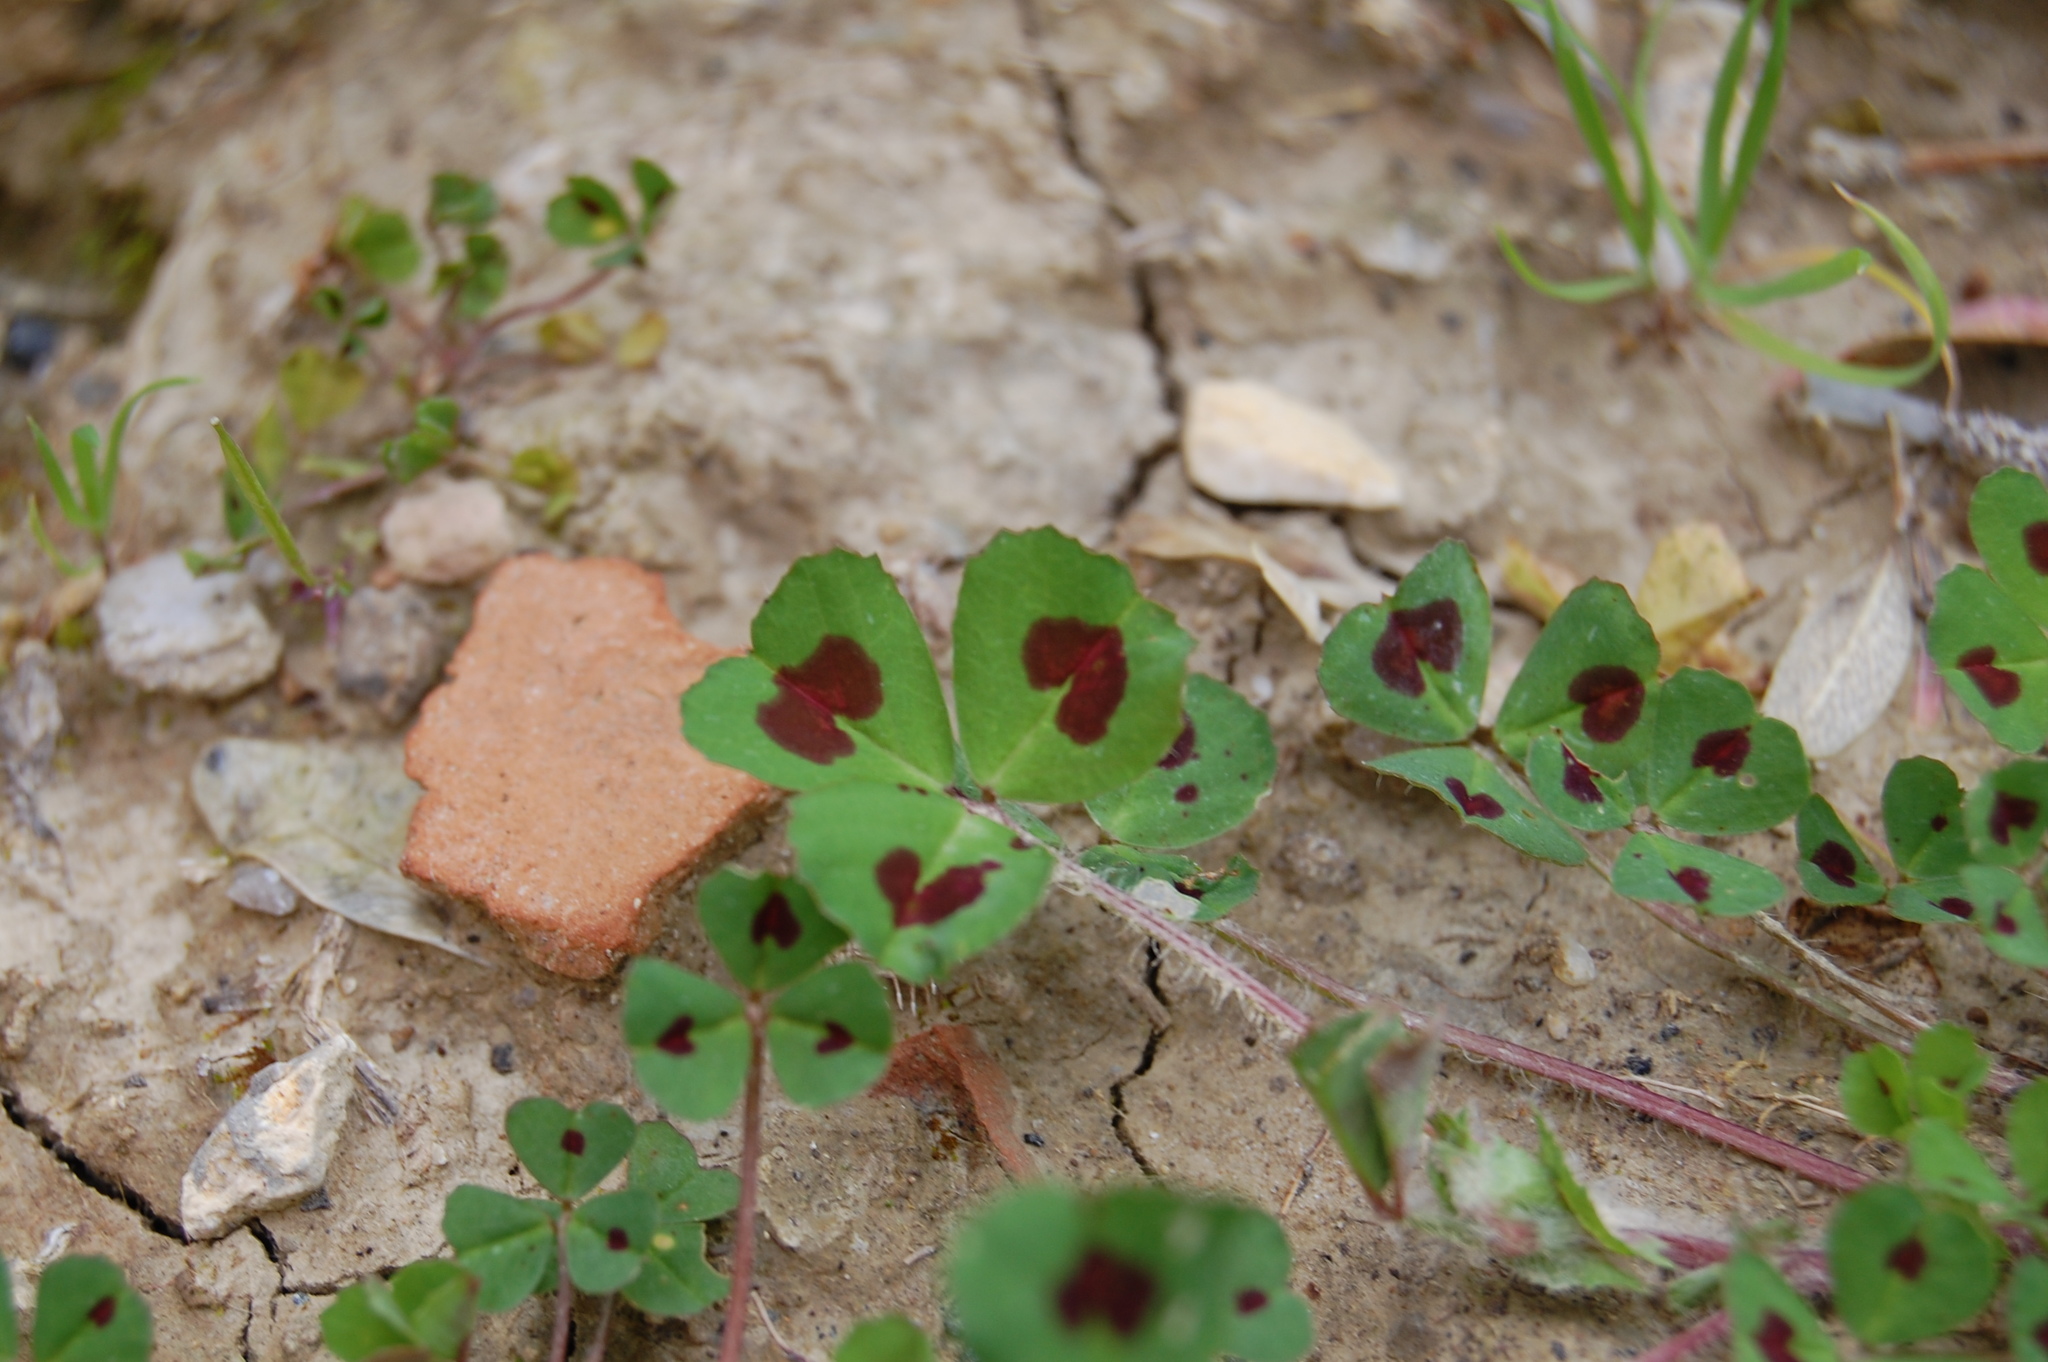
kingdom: Plantae
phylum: Tracheophyta
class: Magnoliopsida
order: Fabales
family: Fabaceae
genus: Medicago
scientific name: Medicago arabica
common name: Spotted medick
